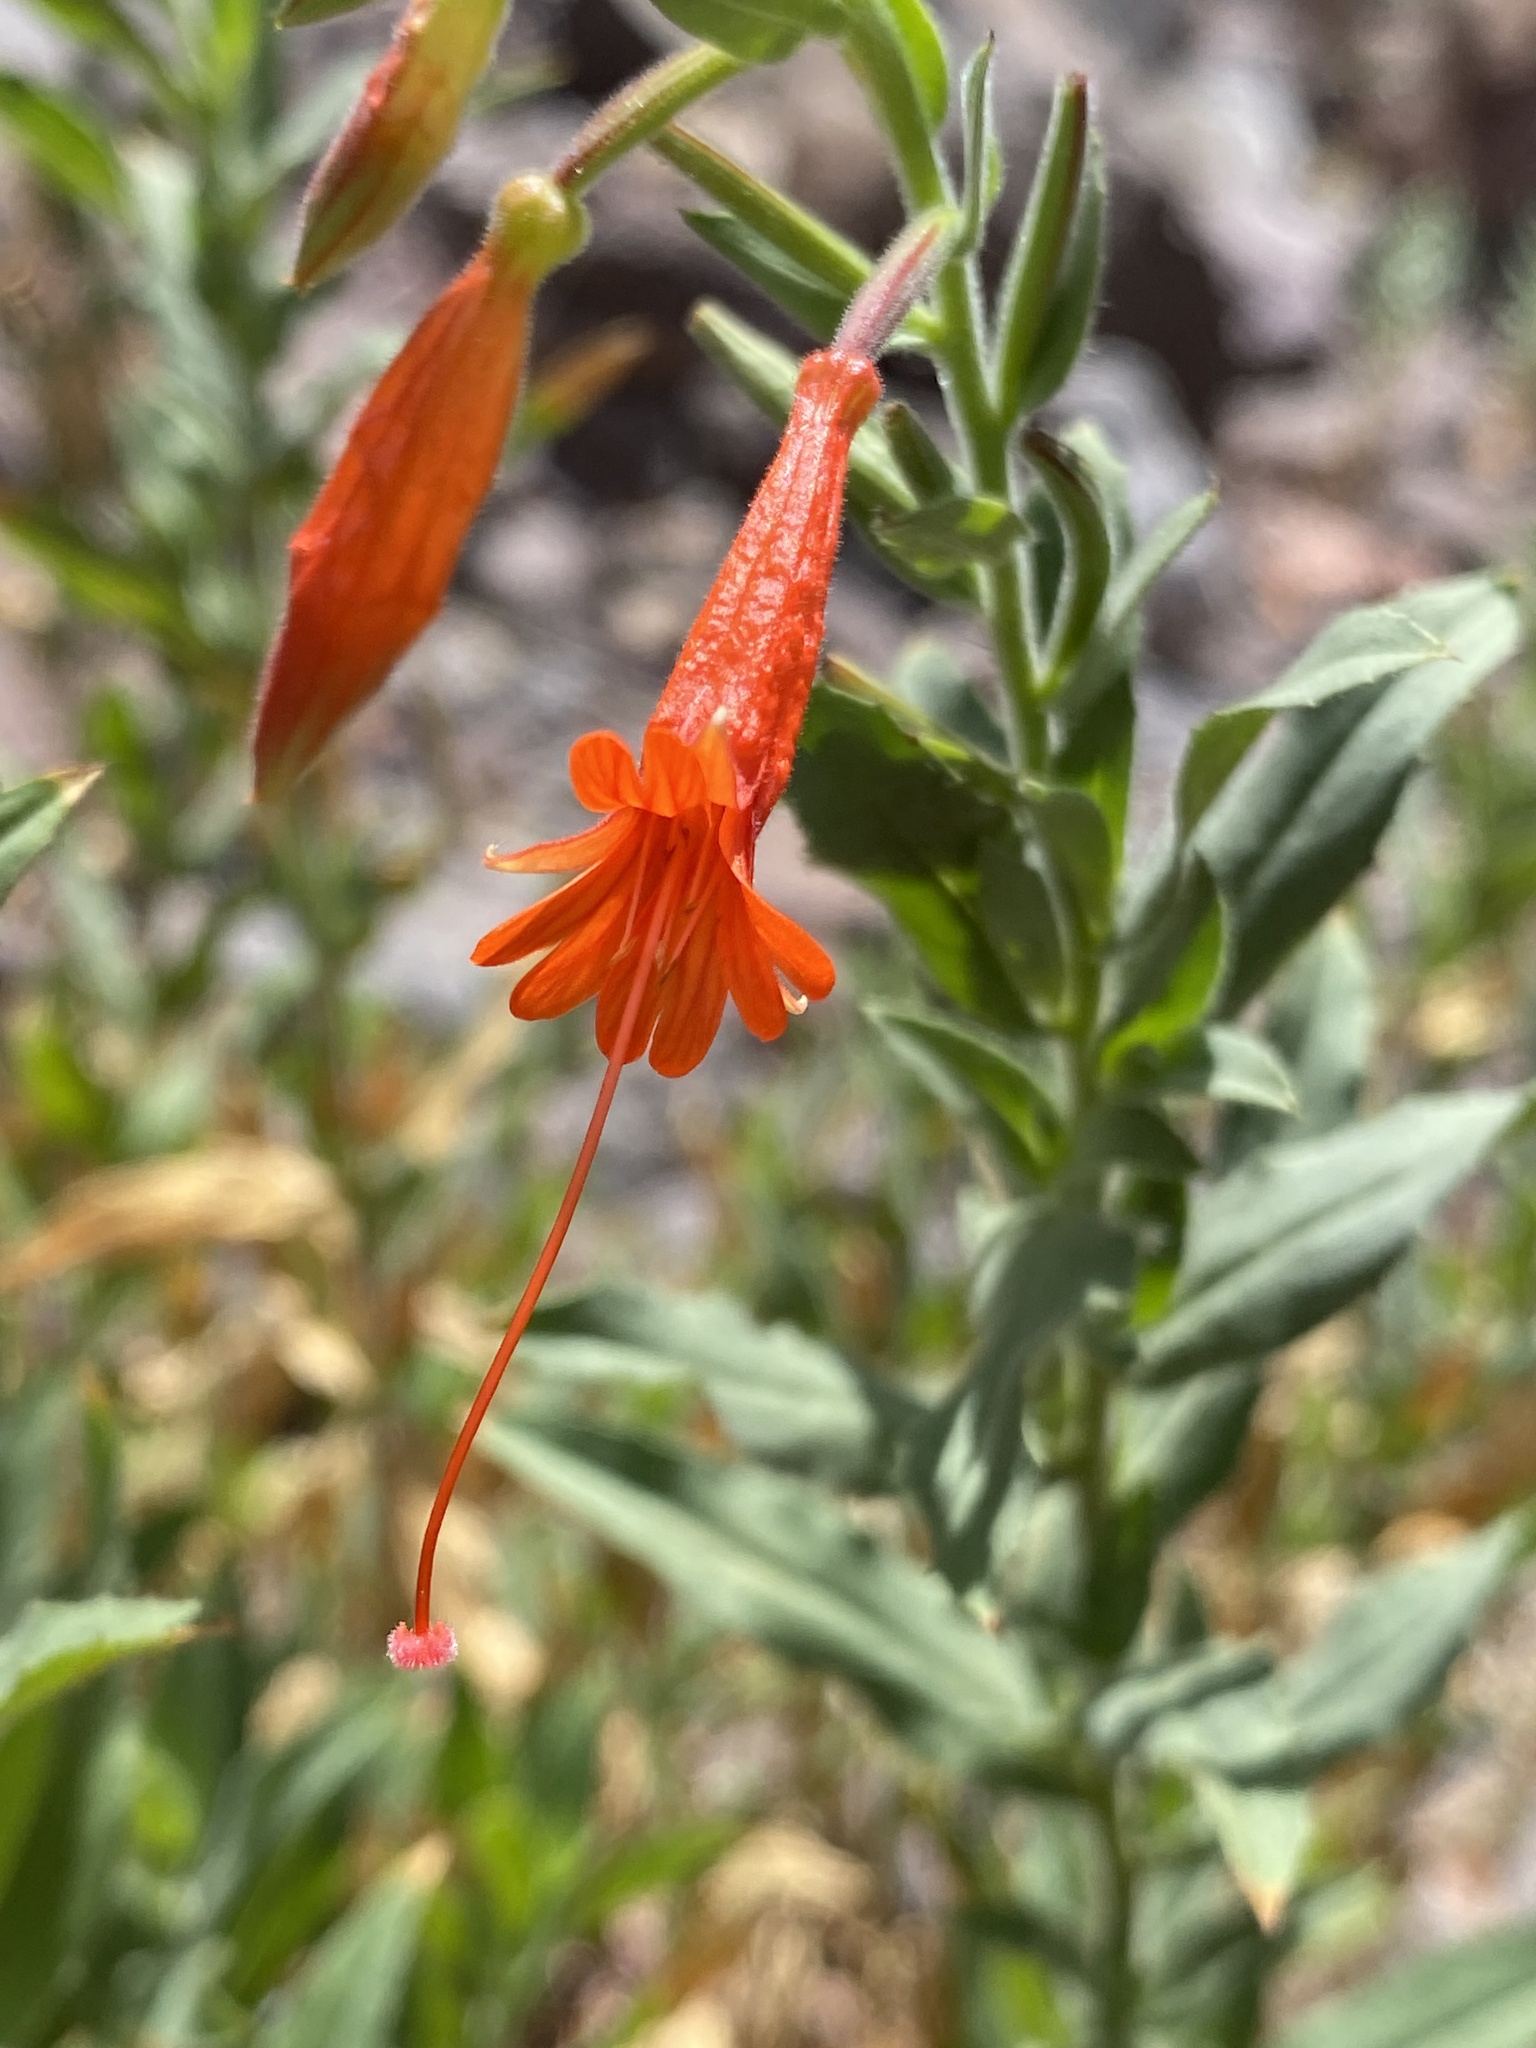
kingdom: Plantae
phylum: Tracheophyta
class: Magnoliopsida
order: Myrtales
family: Onagraceae
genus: Epilobium
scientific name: Epilobium canum
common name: California-fuchsia
